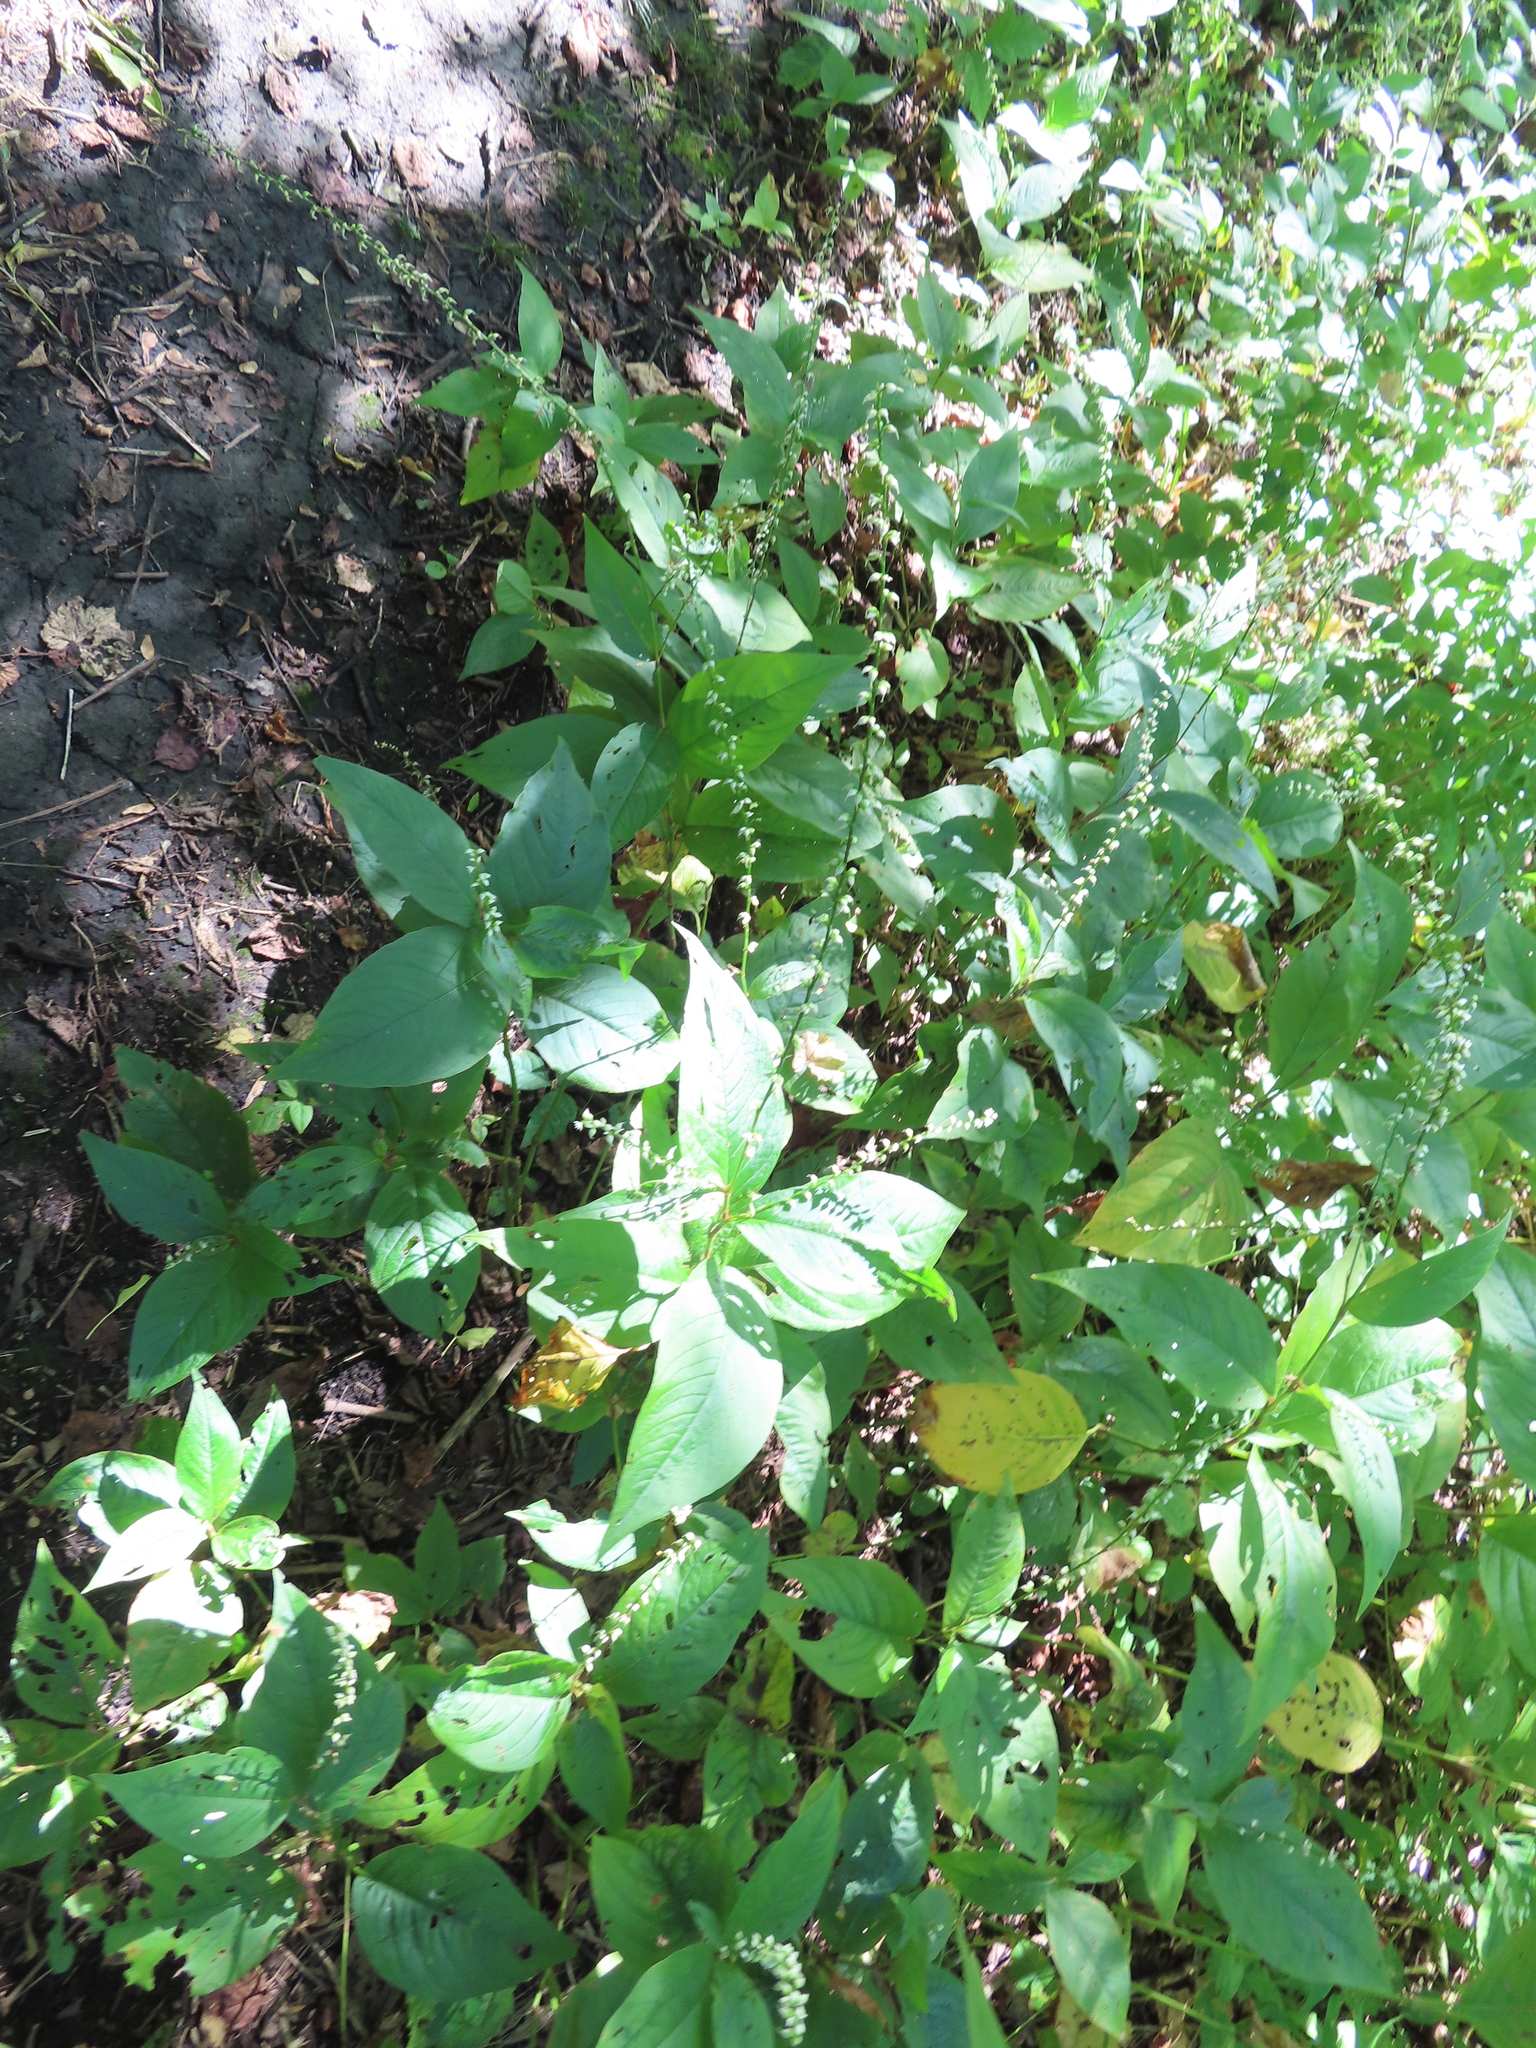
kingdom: Plantae
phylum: Tracheophyta
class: Magnoliopsida
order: Caryophyllales
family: Polygonaceae
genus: Persicaria
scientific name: Persicaria virginiana
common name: Jumpseed
